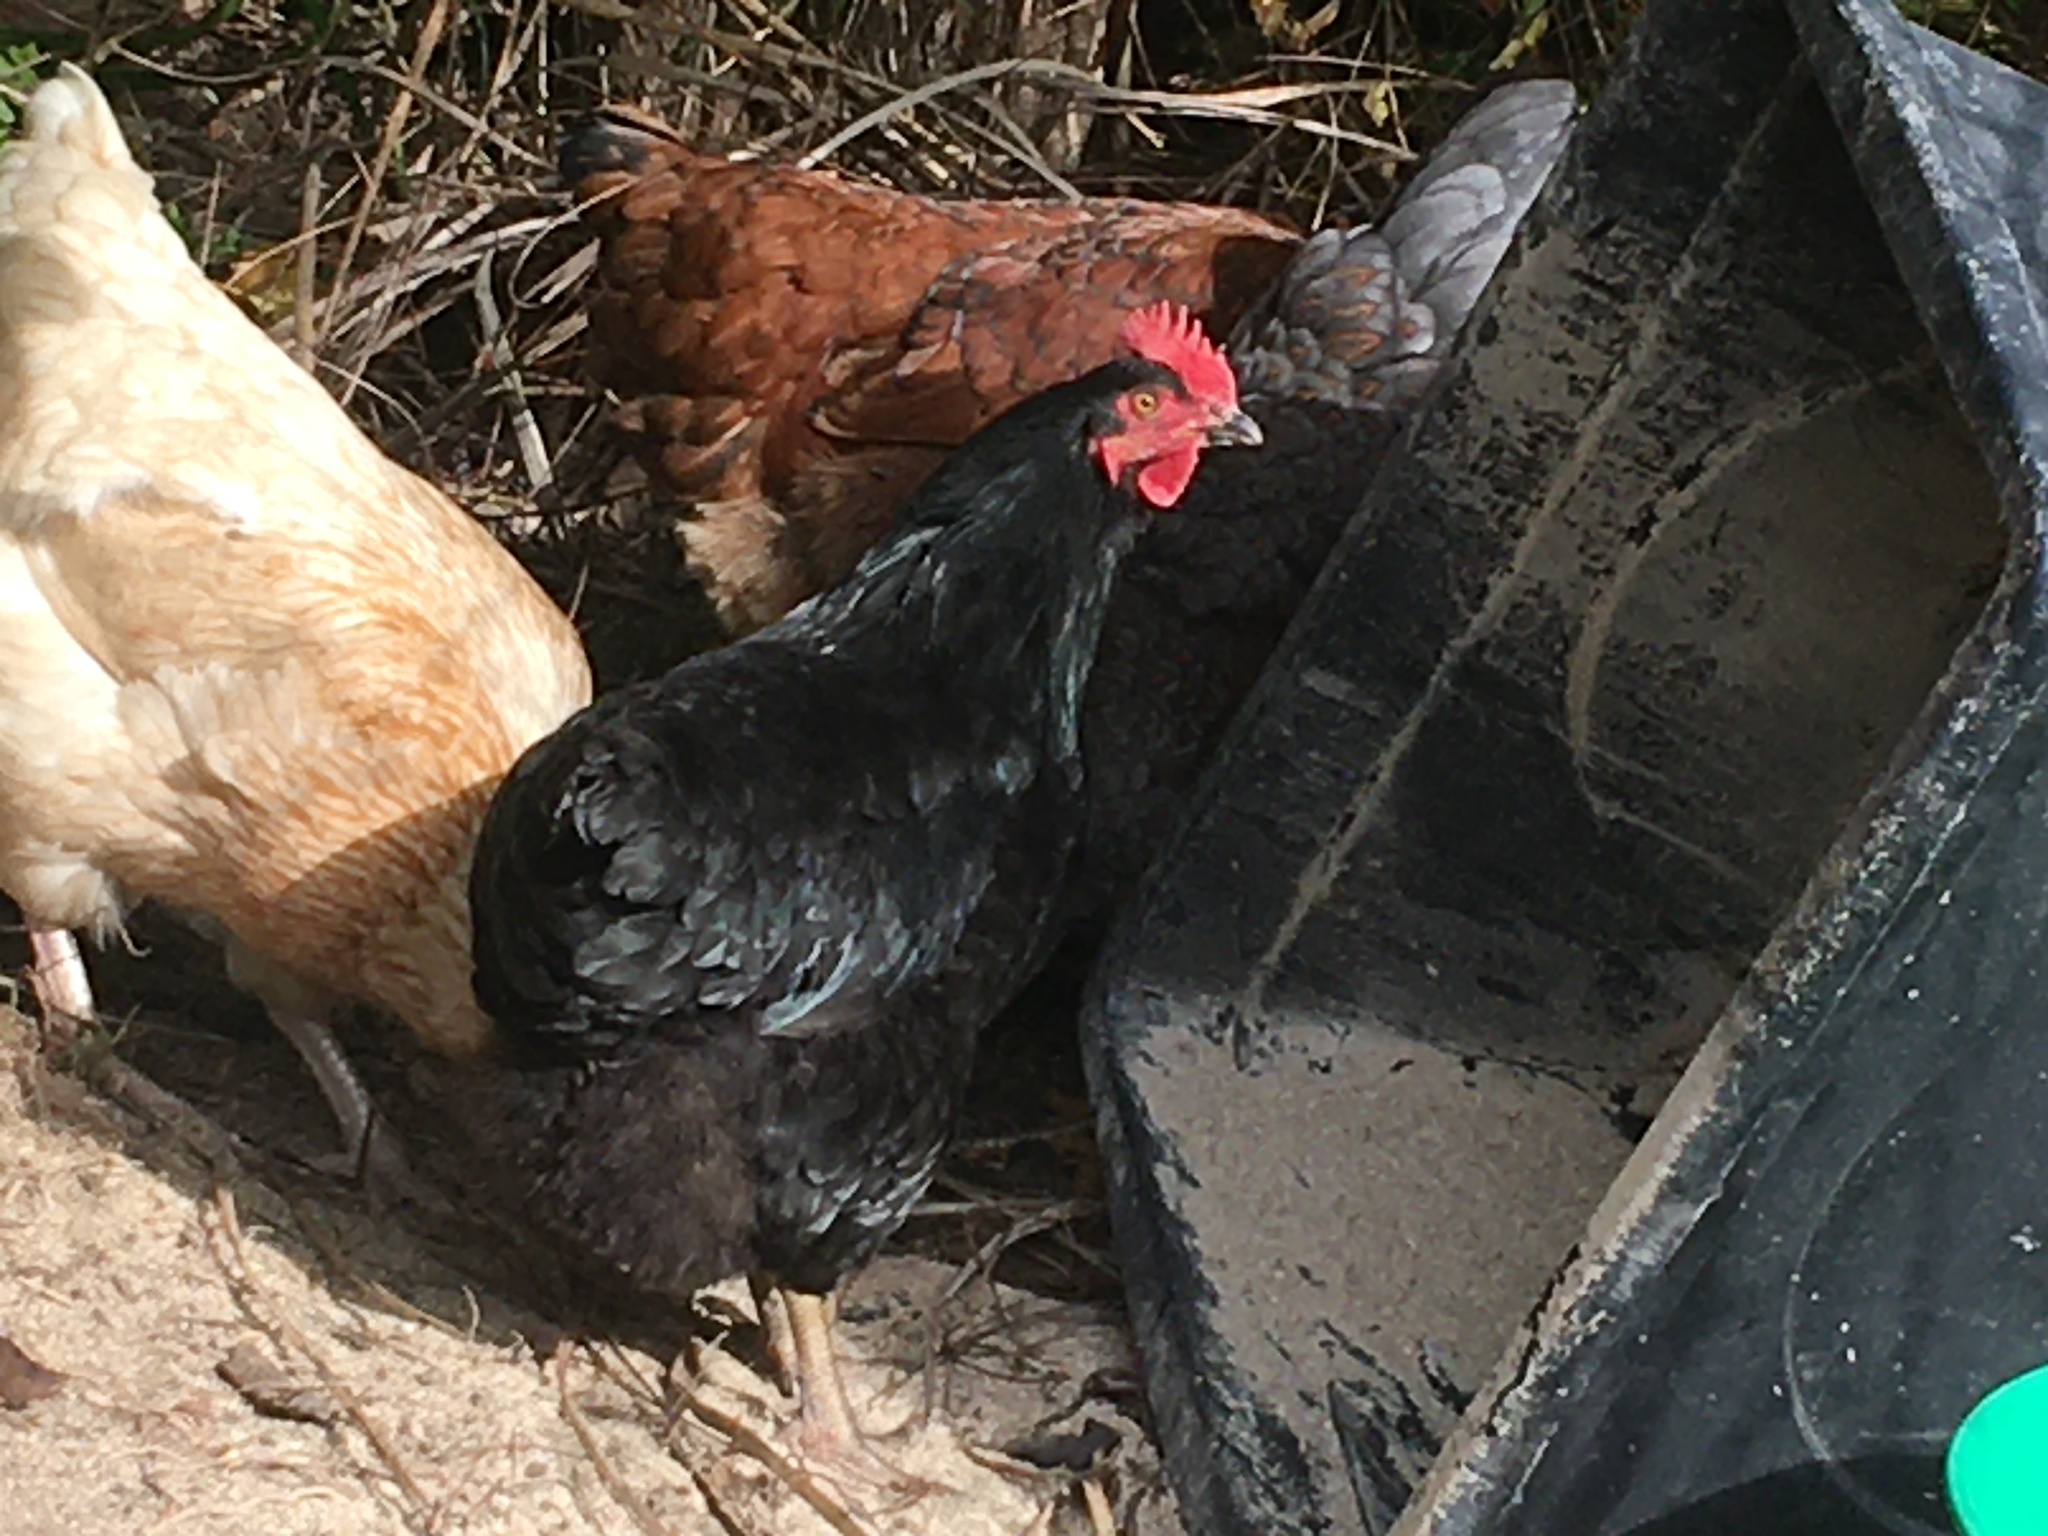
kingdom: Animalia
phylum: Chordata
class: Aves
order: Galliformes
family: Phasianidae
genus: Gallus
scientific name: Gallus gallus
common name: Red junglefowl
